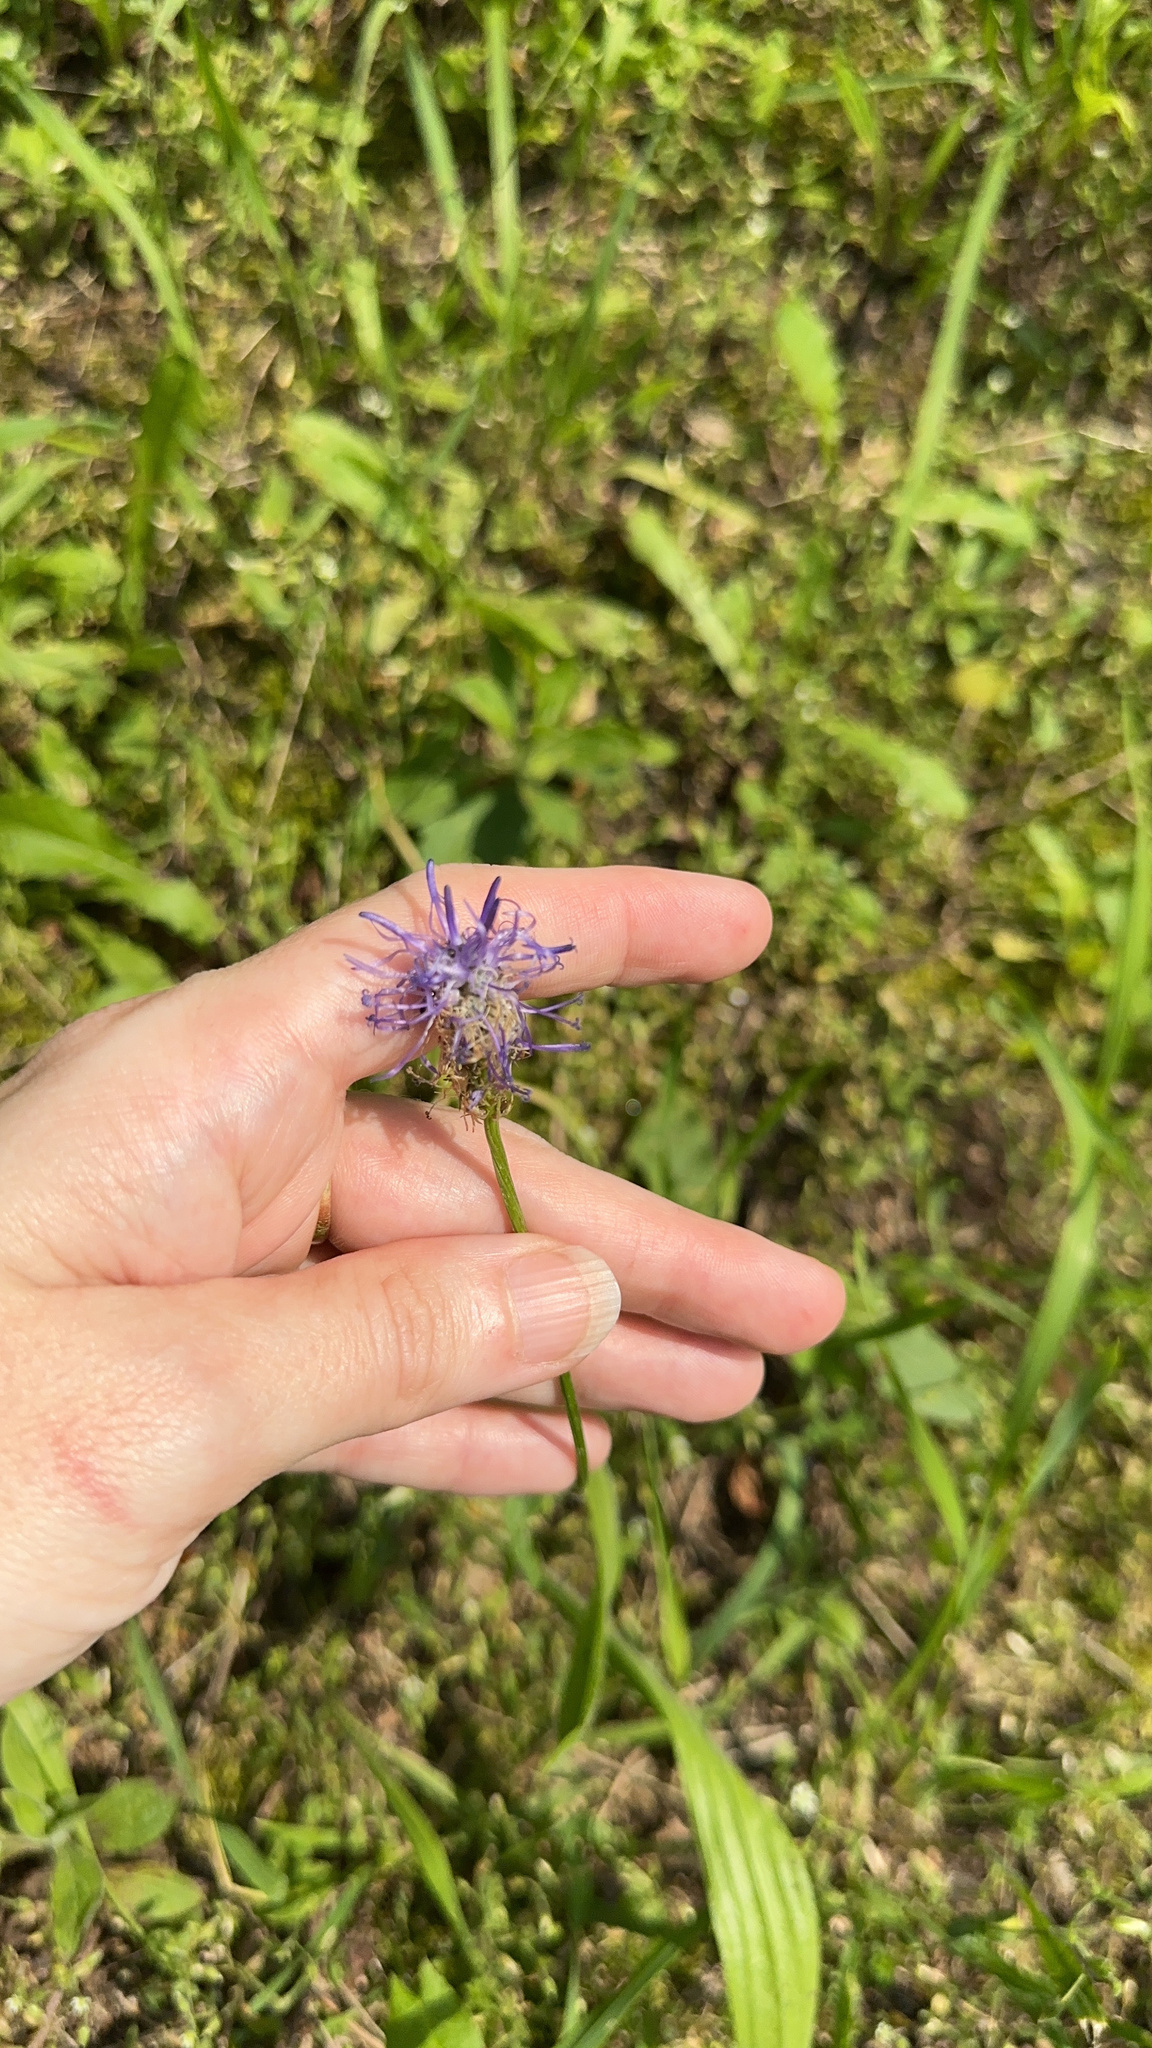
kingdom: Plantae
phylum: Tracheophyta
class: Magnoliopsida
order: Asterales
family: Campanulaceae
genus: Phyteuma
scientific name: Phyteuma betonicifolium
